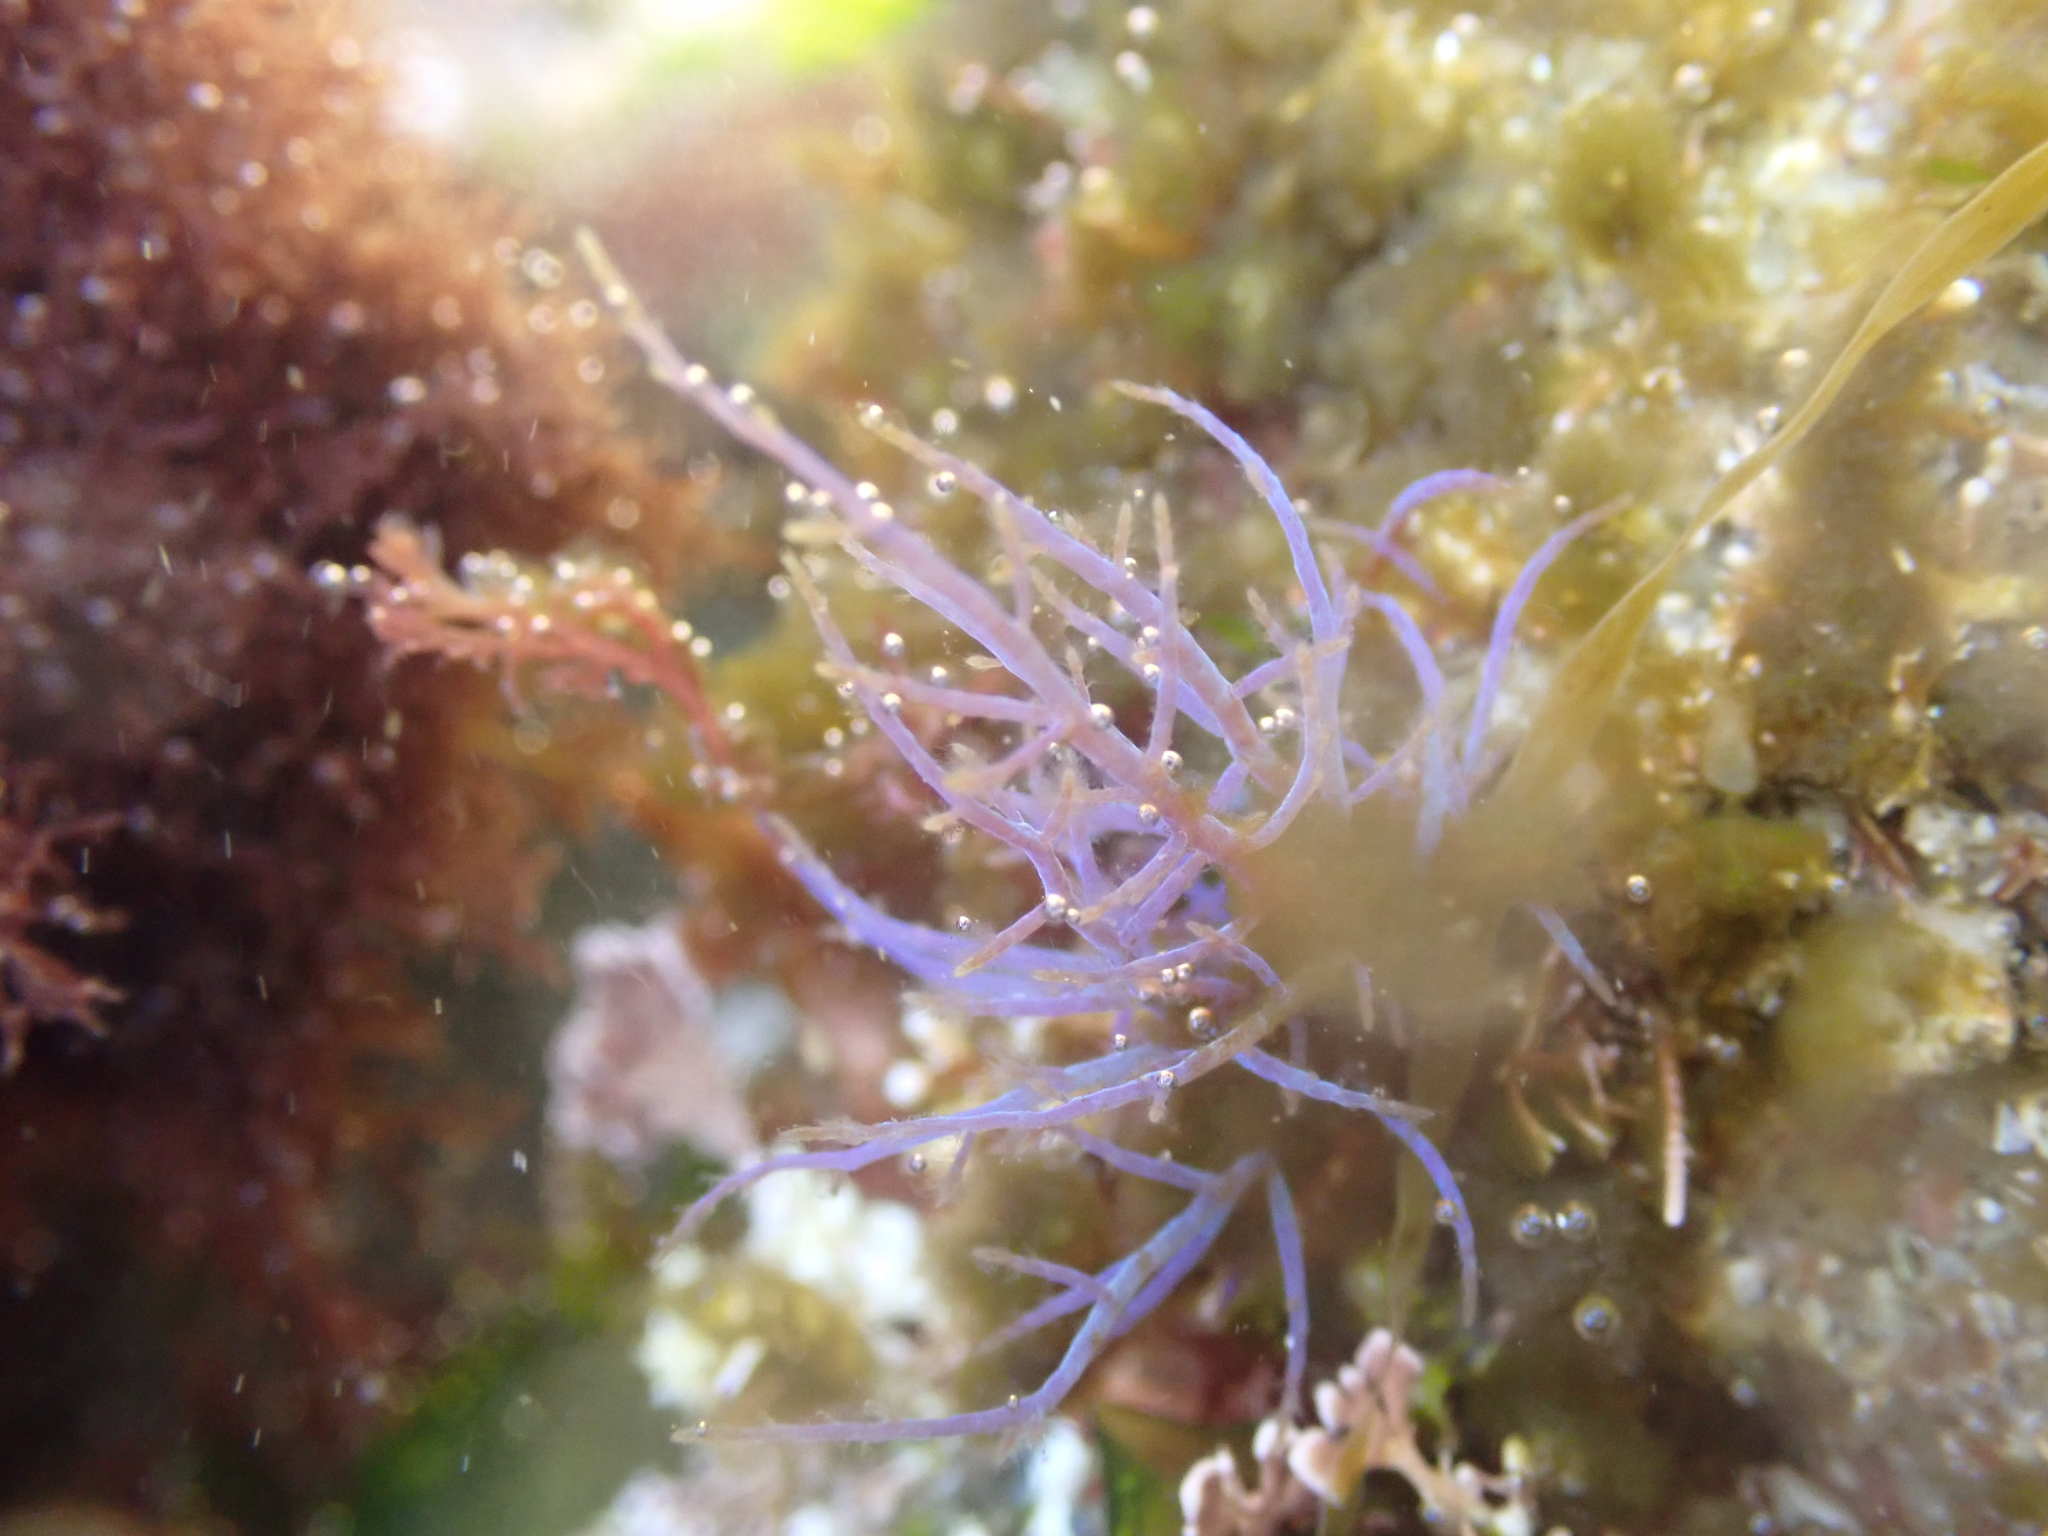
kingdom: Plantae
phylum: Rhodophyta
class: Florideophyceae
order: Ceramiales
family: Rhodomelaceae
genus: Chondria
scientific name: Chondria acrorhizophora
